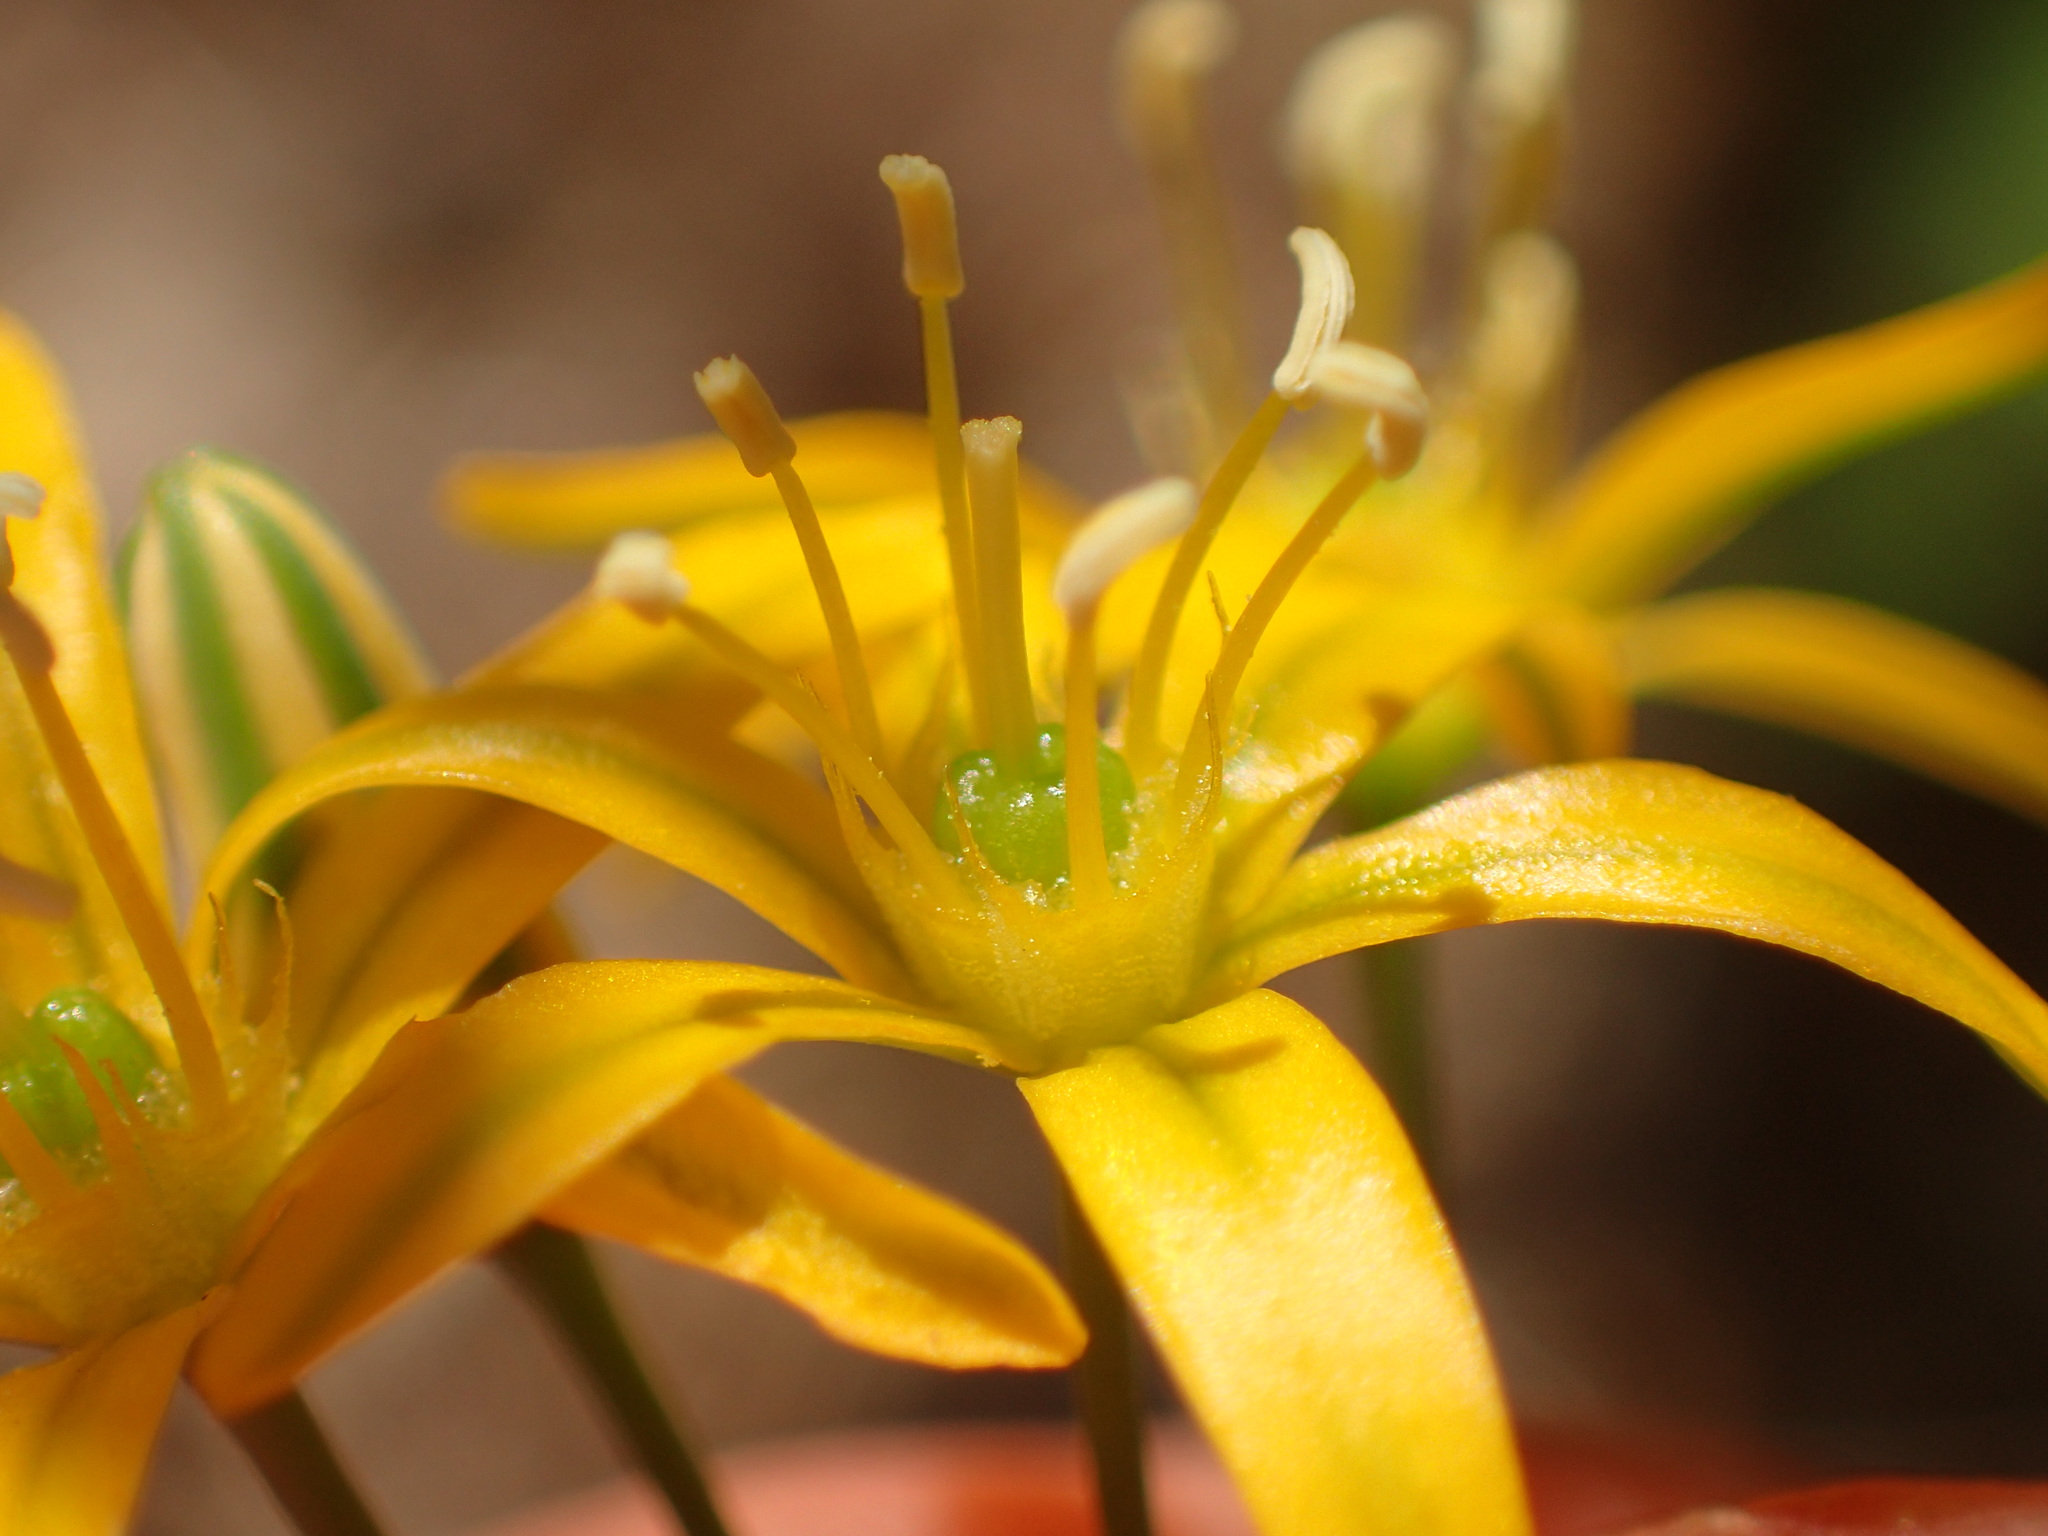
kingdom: Plantae
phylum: Tracheophyta
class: Liliopsida
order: Asparagales
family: Asparagaceae
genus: Bloomeria
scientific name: Bloomeria crocea
